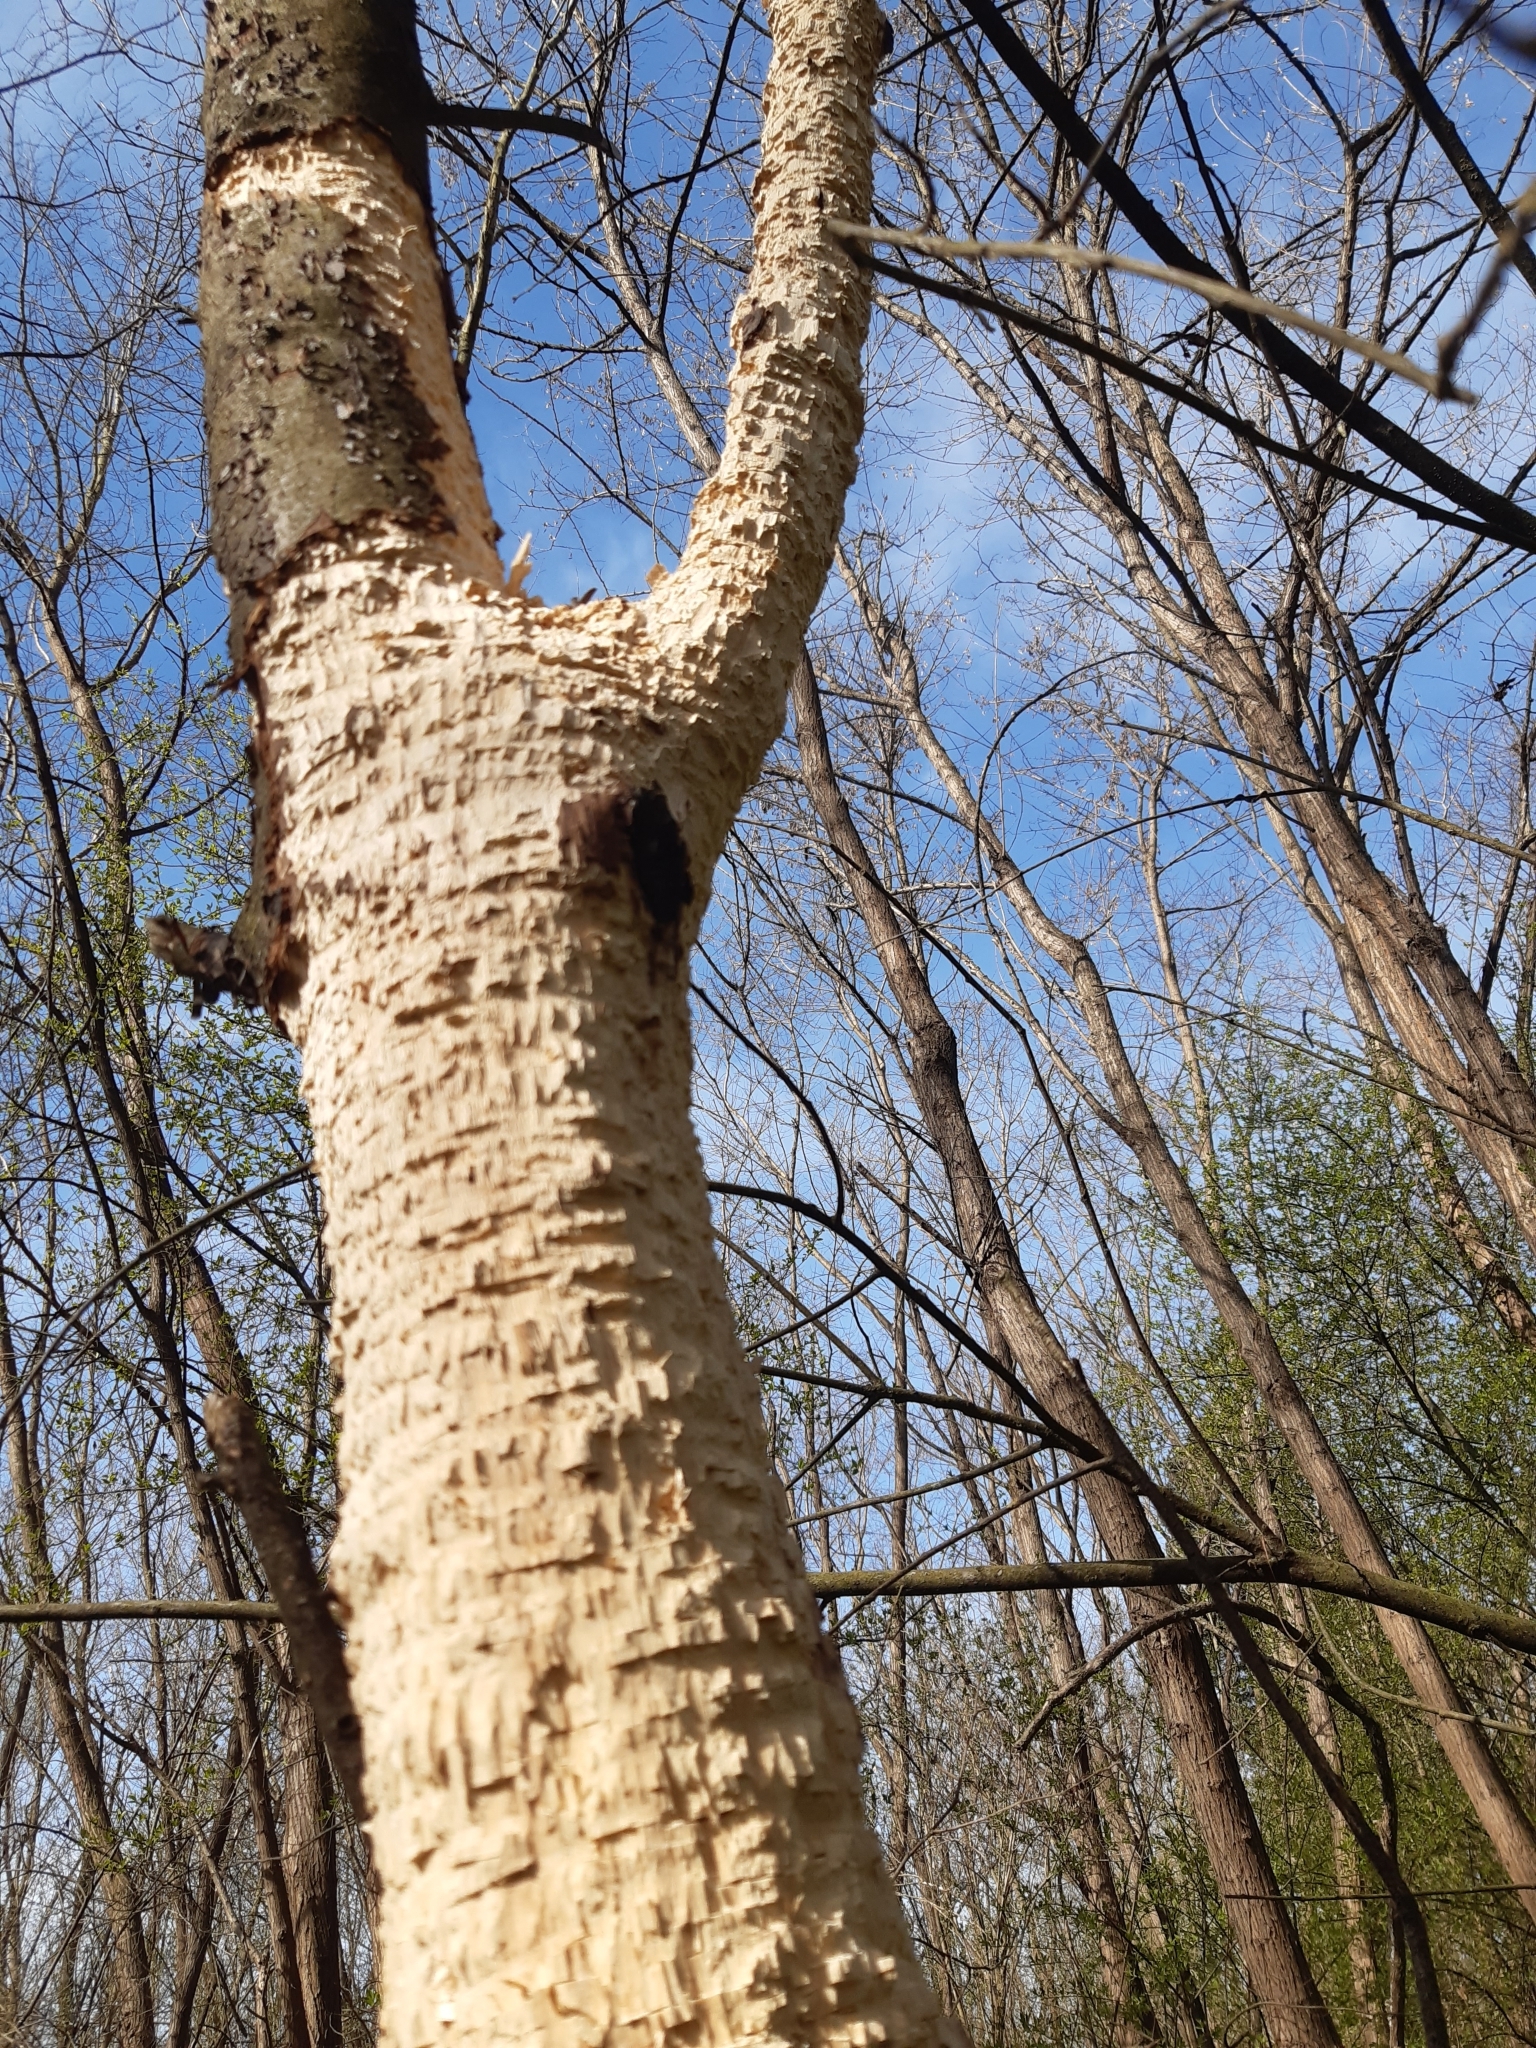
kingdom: Animalia
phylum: Chordata
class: Aves
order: Piciformes
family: Picidae
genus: Dryocopus
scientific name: Dryocopus martius
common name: Black woodpecker
